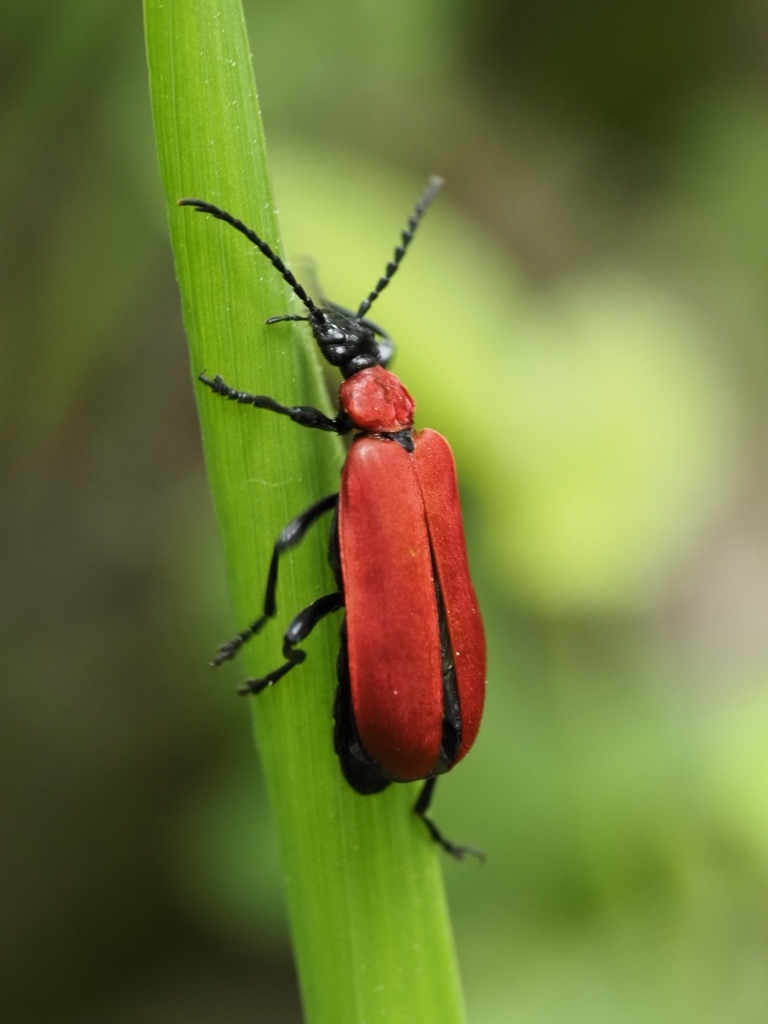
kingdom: Animalia
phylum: Arthropoda
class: Insecta
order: Coleoptera
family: Pyrochroidae
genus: Pyrochroa
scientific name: Pyrochroa coccinea
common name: Black-headed cardinal beetle
